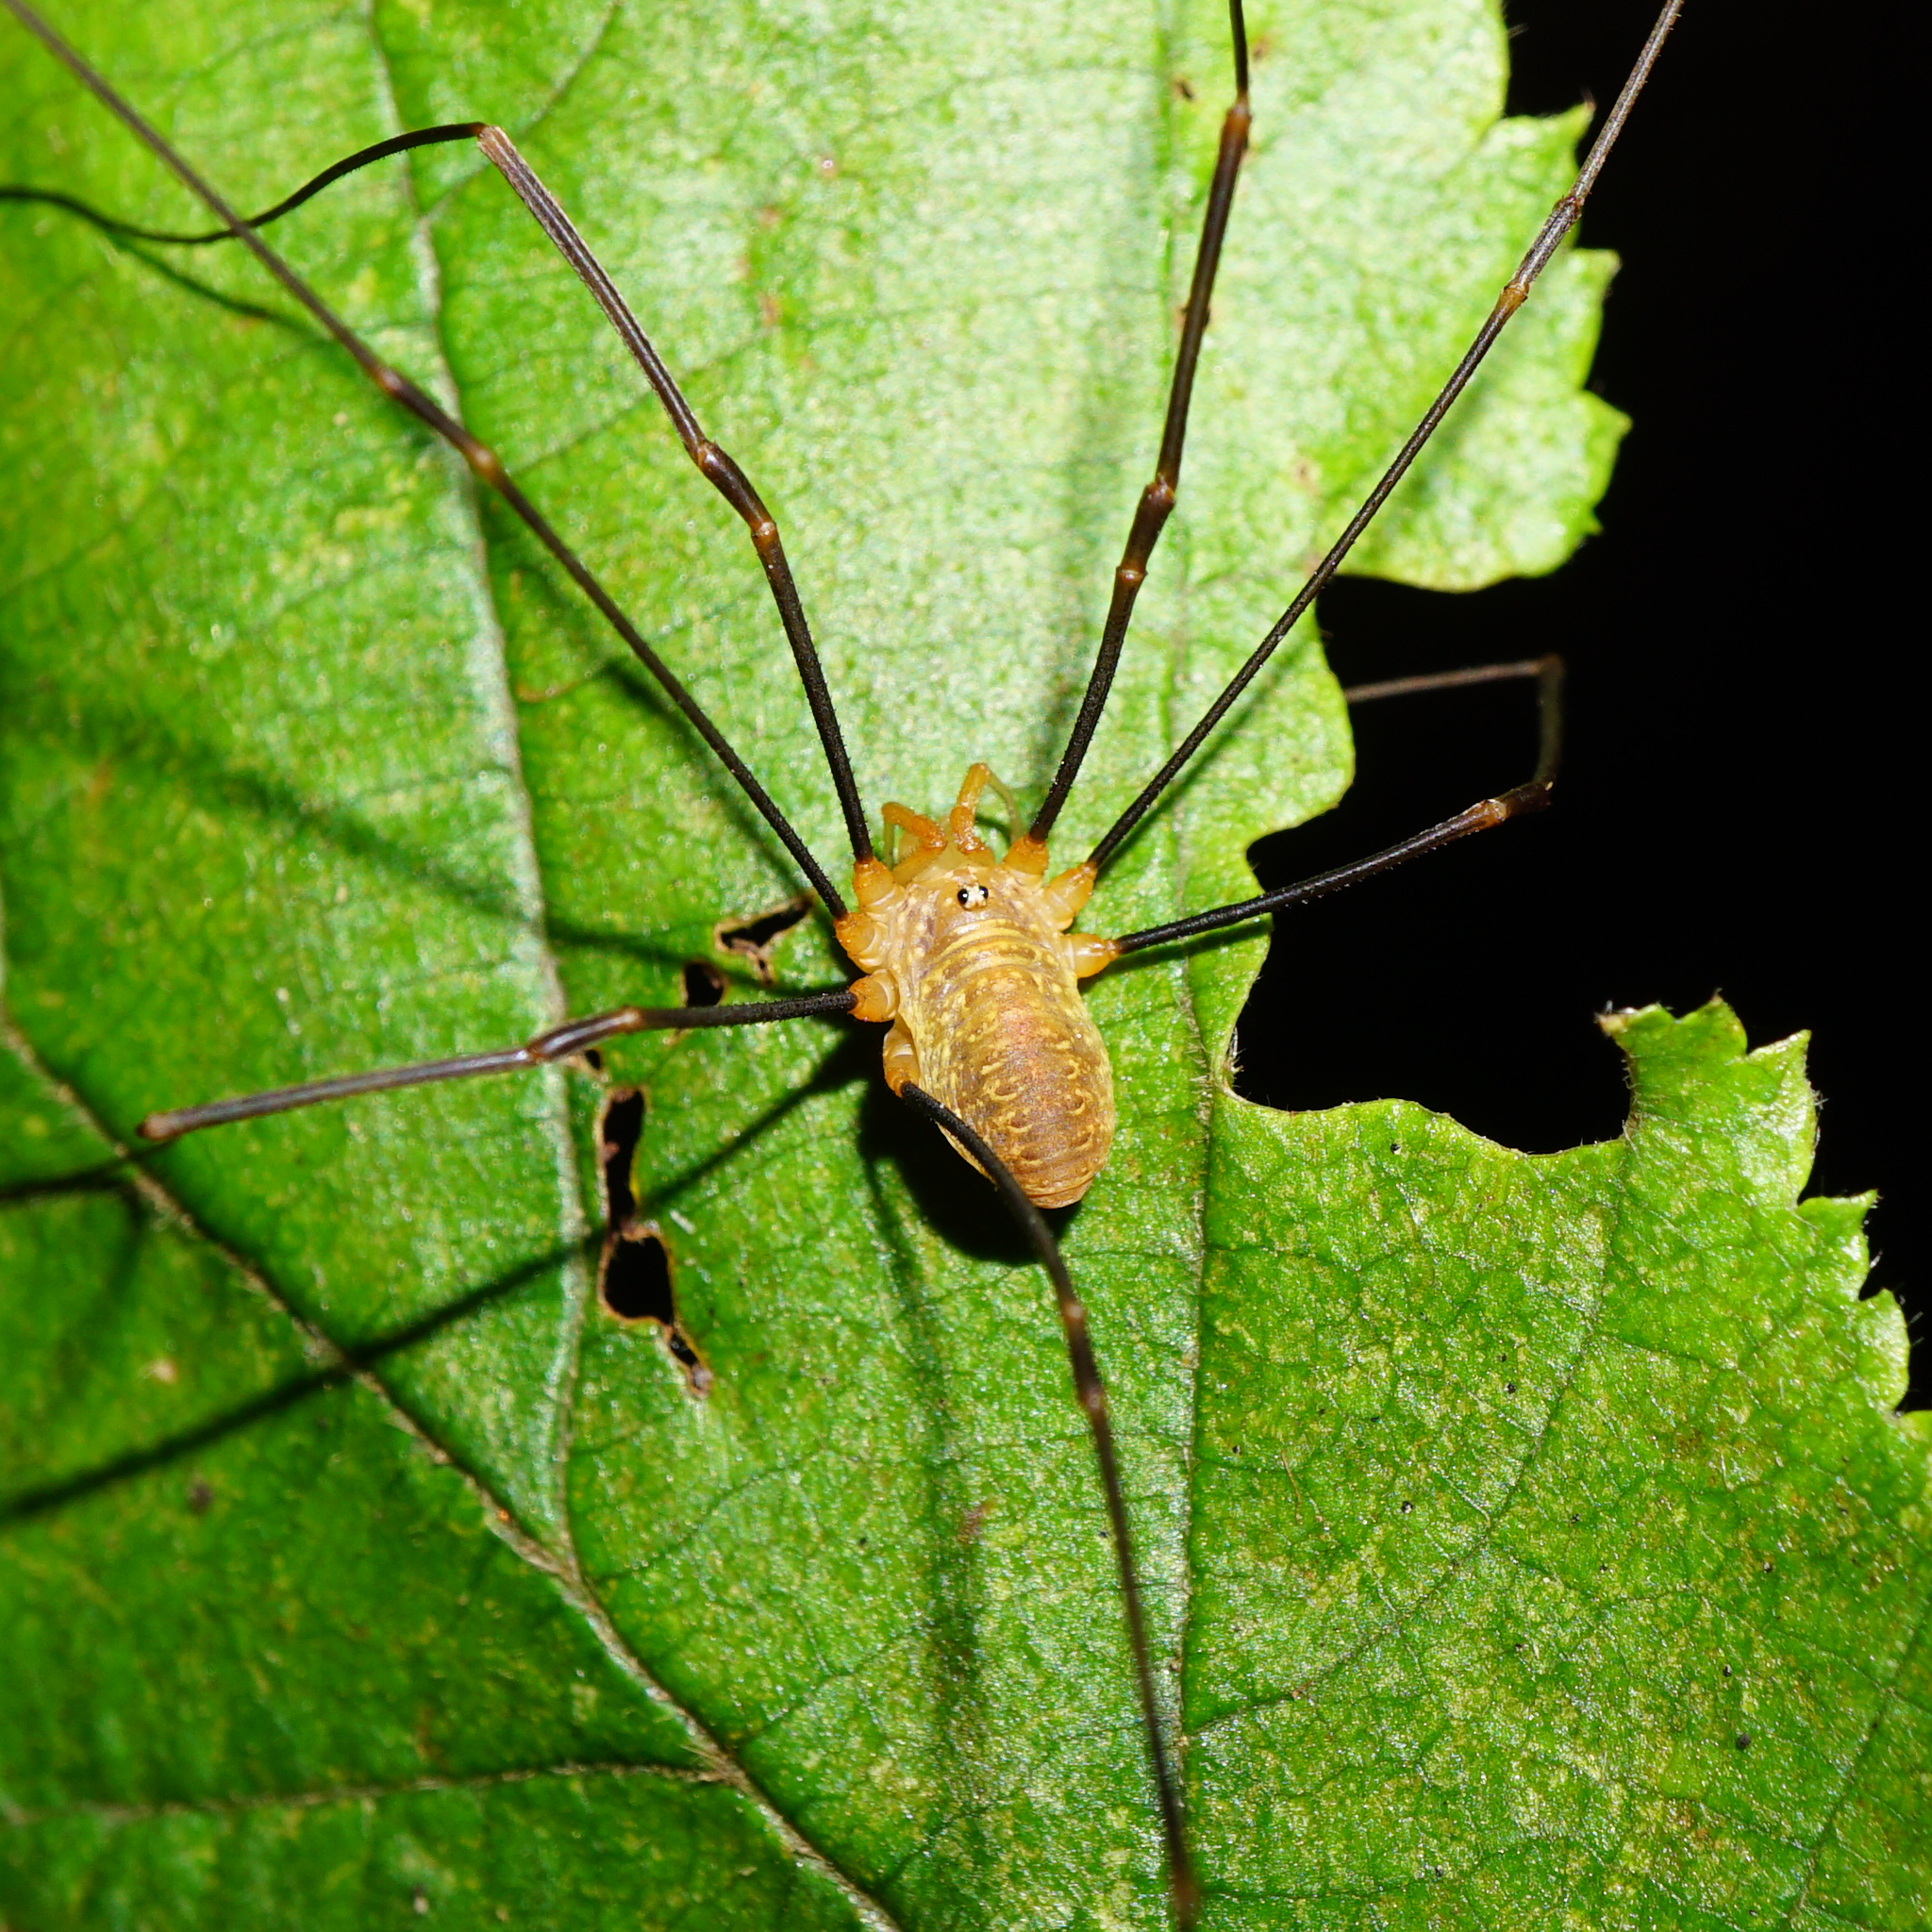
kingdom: Animalia
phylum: Arthropoda
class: Arachnida
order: Opiliones
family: Phalangiidae
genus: Opilio
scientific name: Opilio canestrinii
